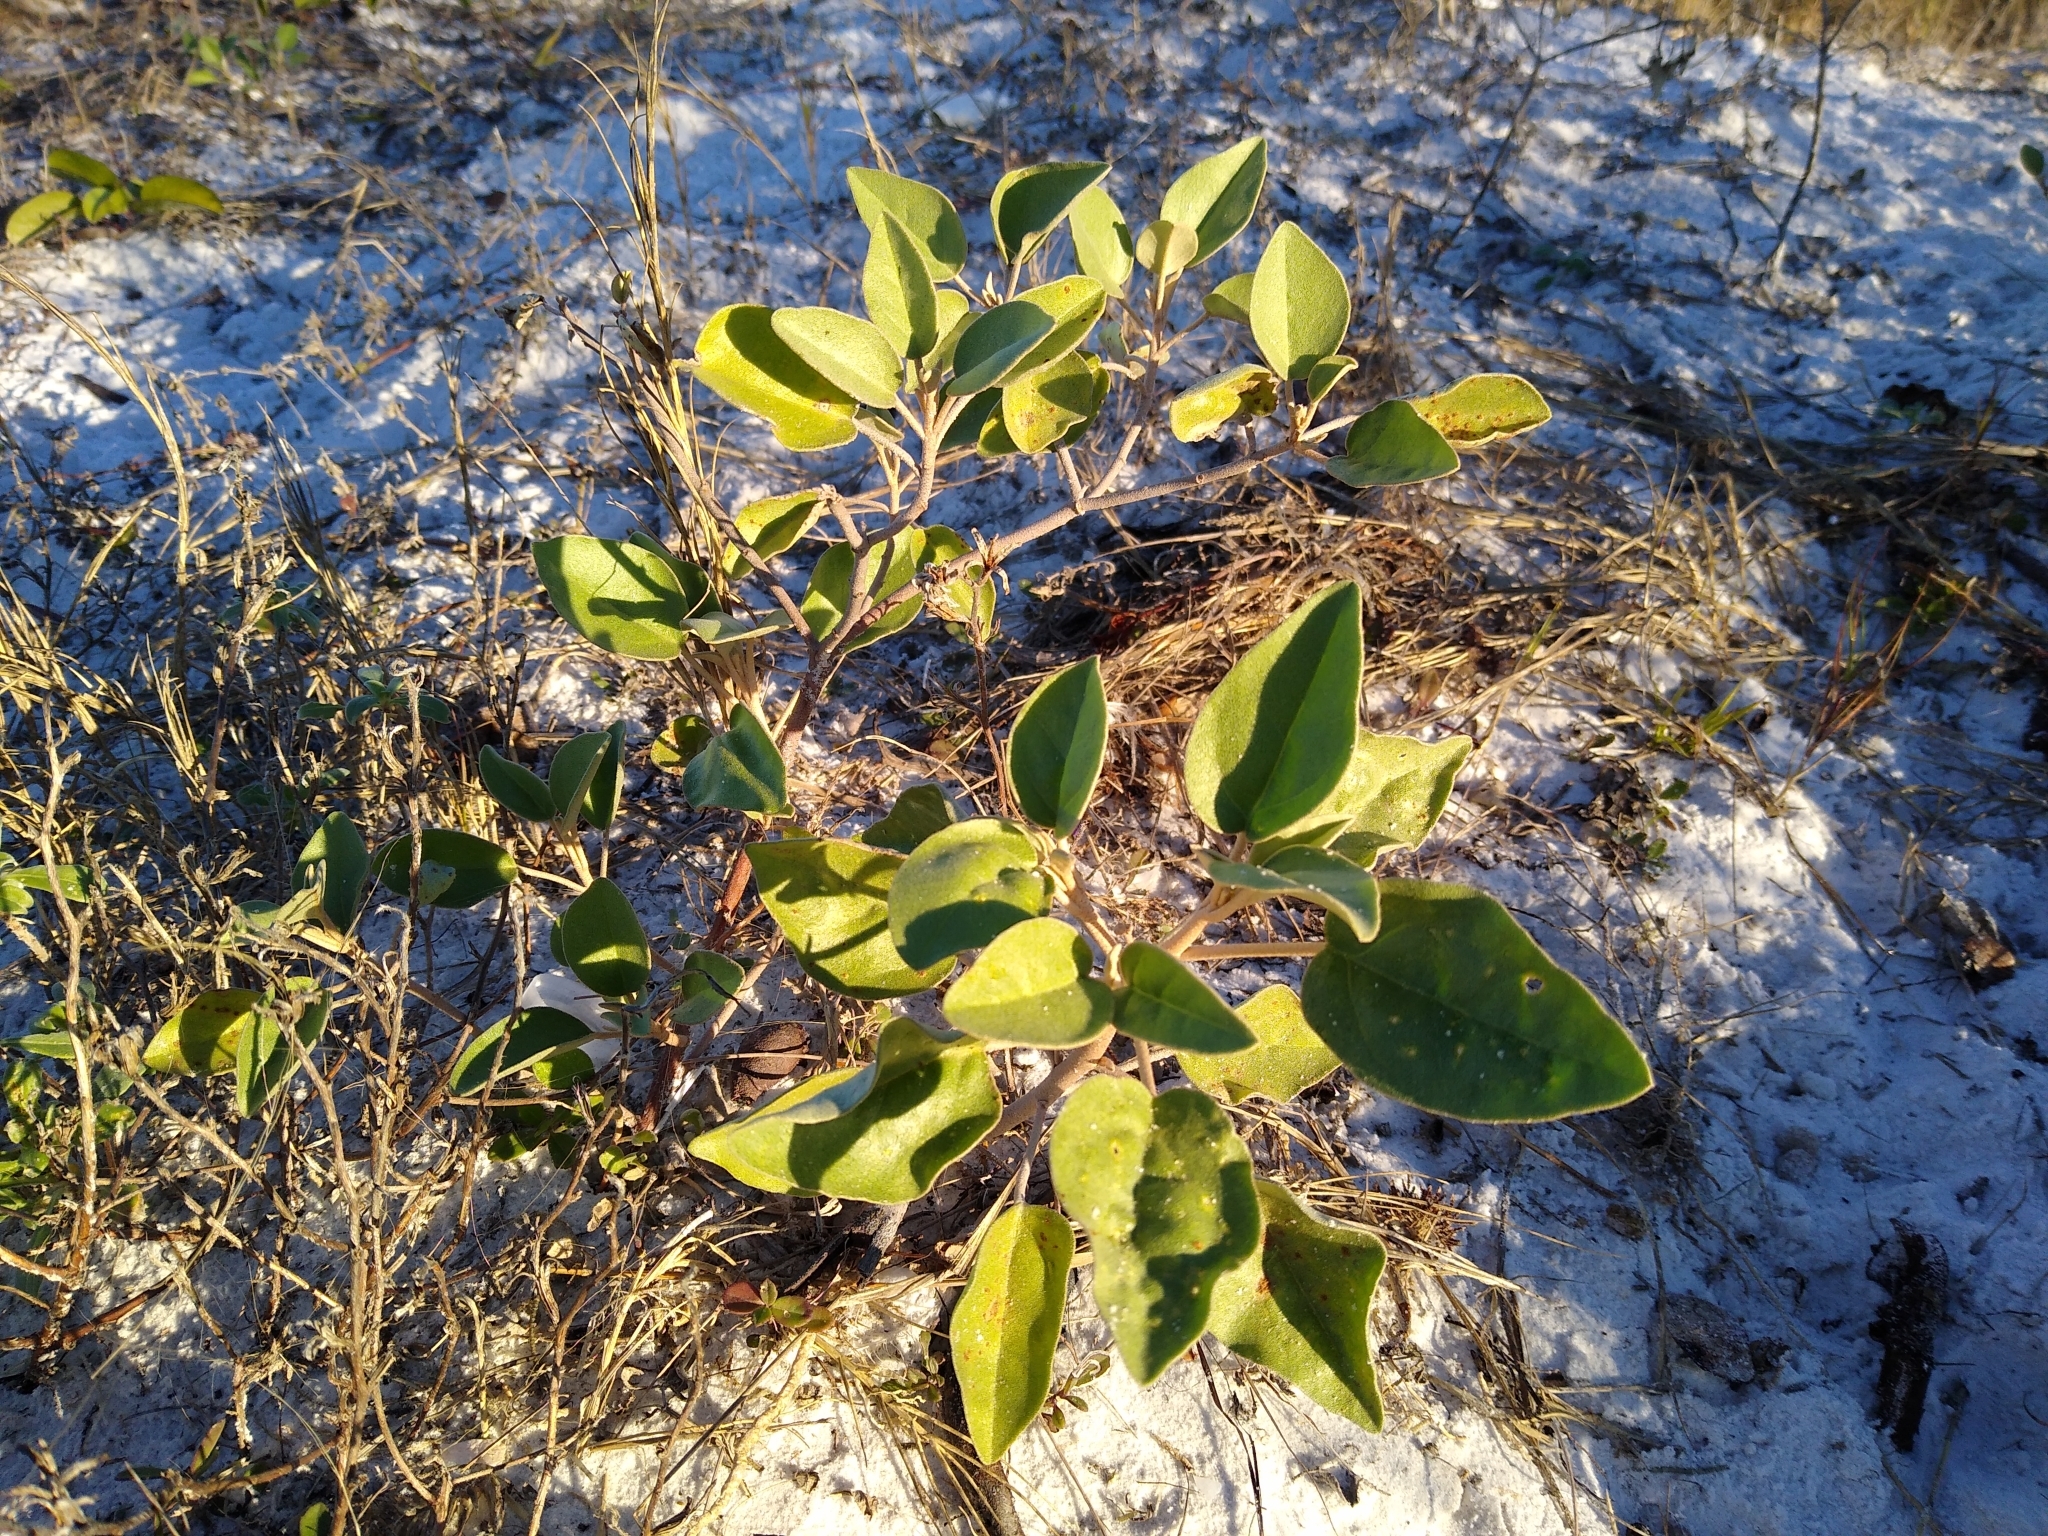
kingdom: Plantae
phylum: Tracheophyta
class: Magnoliopsida
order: Malpighiales
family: Euphorbiaceae
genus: Croton
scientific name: Croton punctatus
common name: Beach-tea
